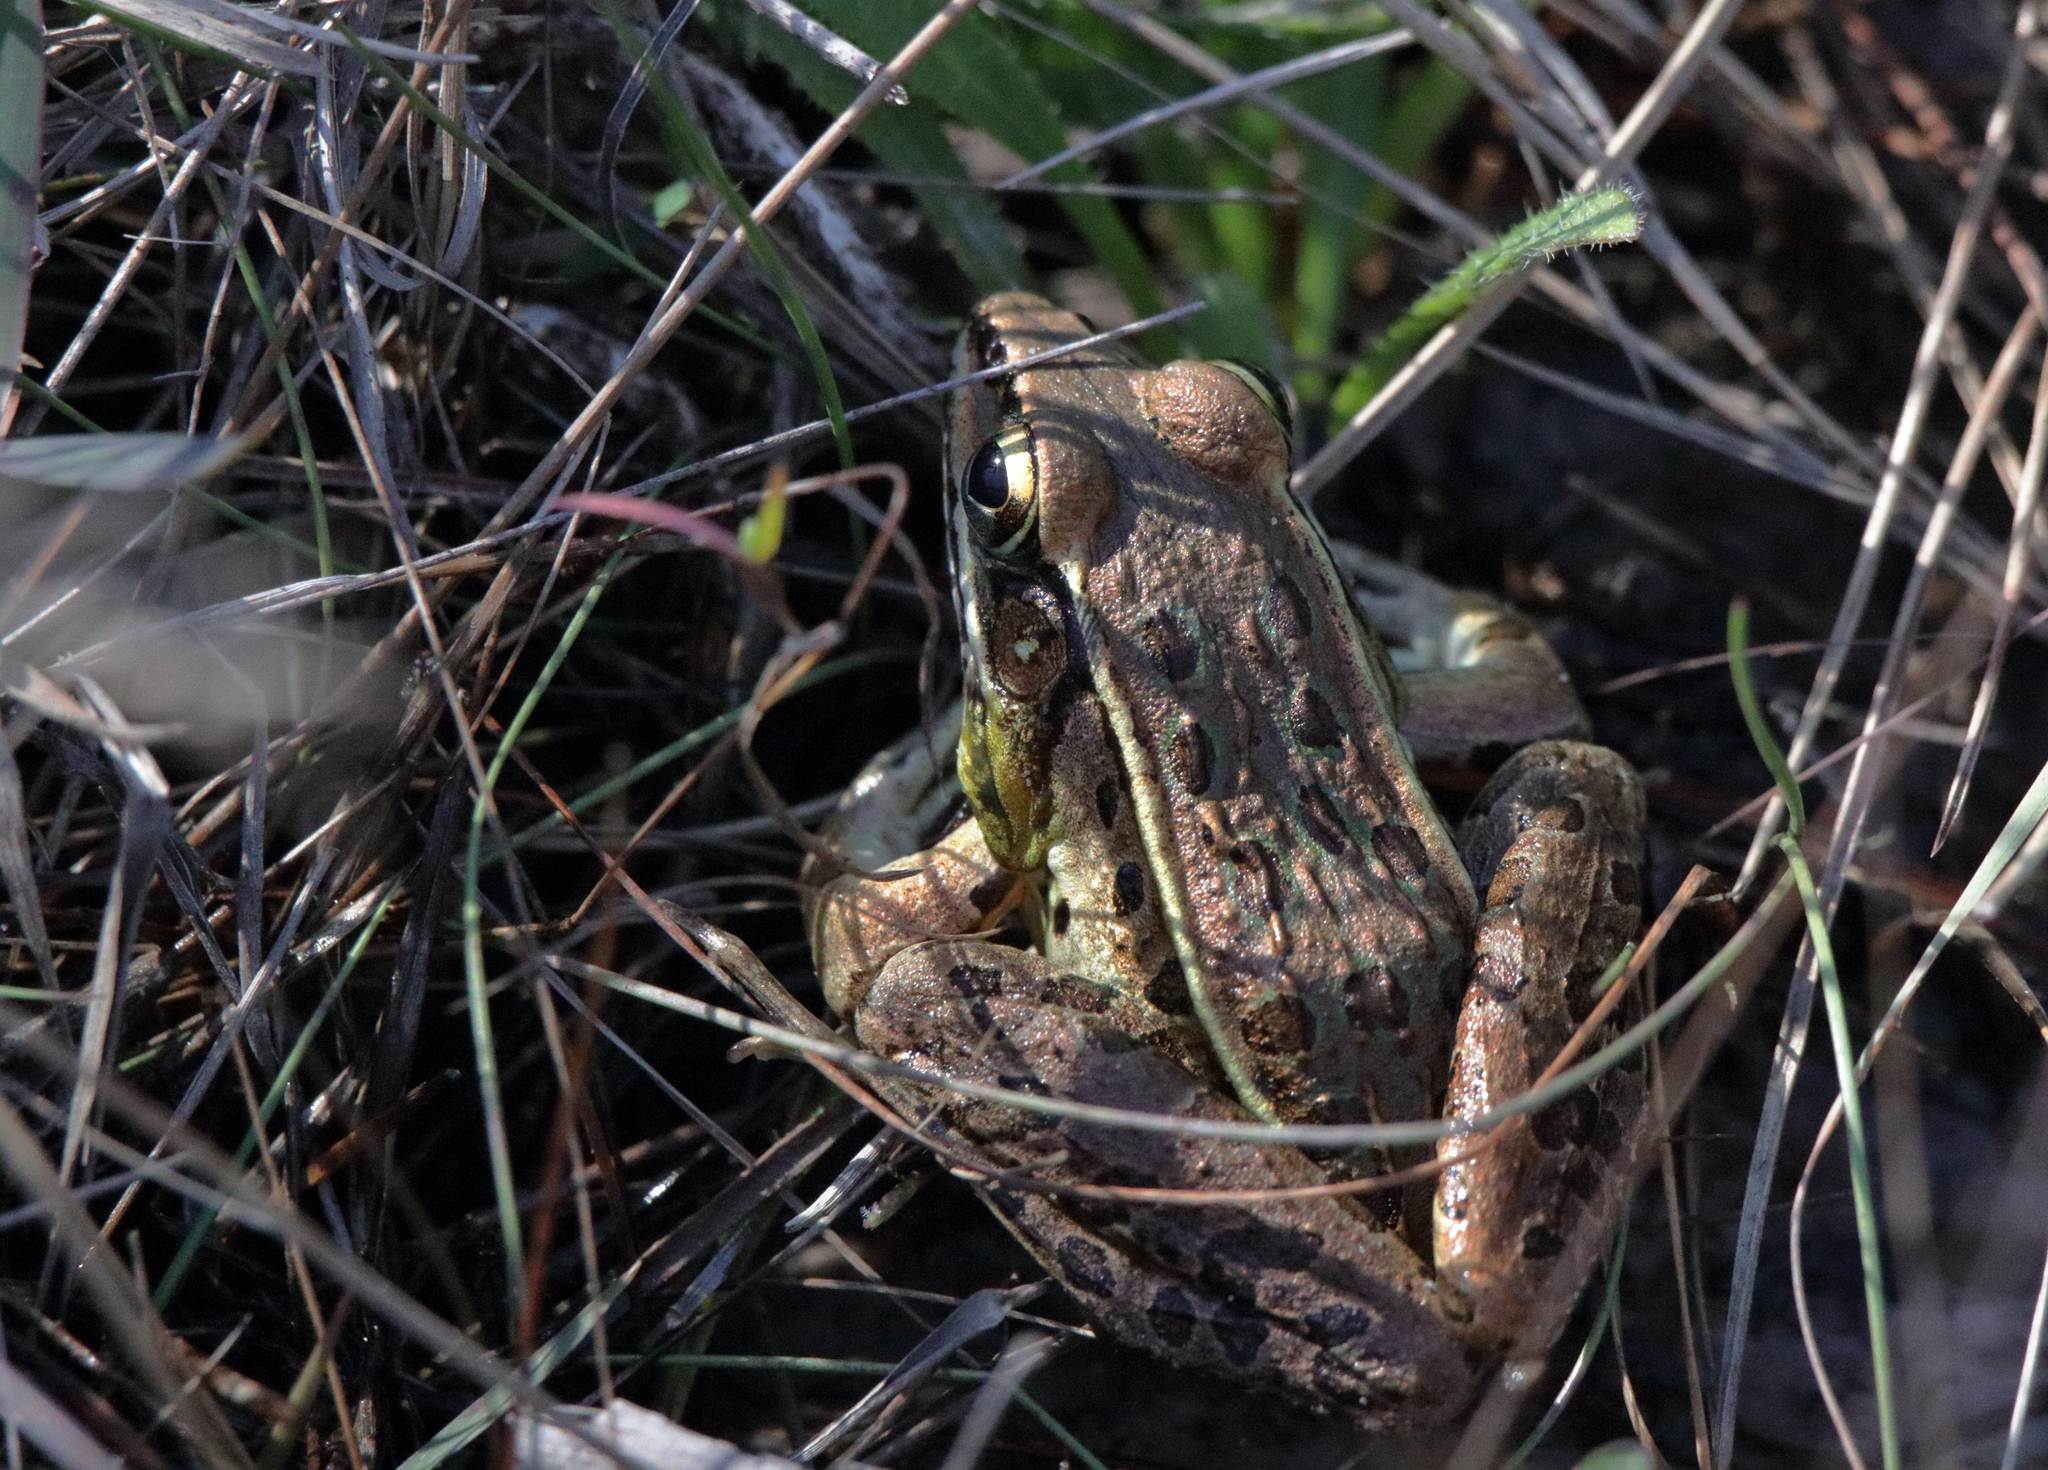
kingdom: Animalia
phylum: Chordata
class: Amphibia
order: Anura
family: Ranidae
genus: Lithobates
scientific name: Lithobates sphenocephalus
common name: Southern leopard frog
